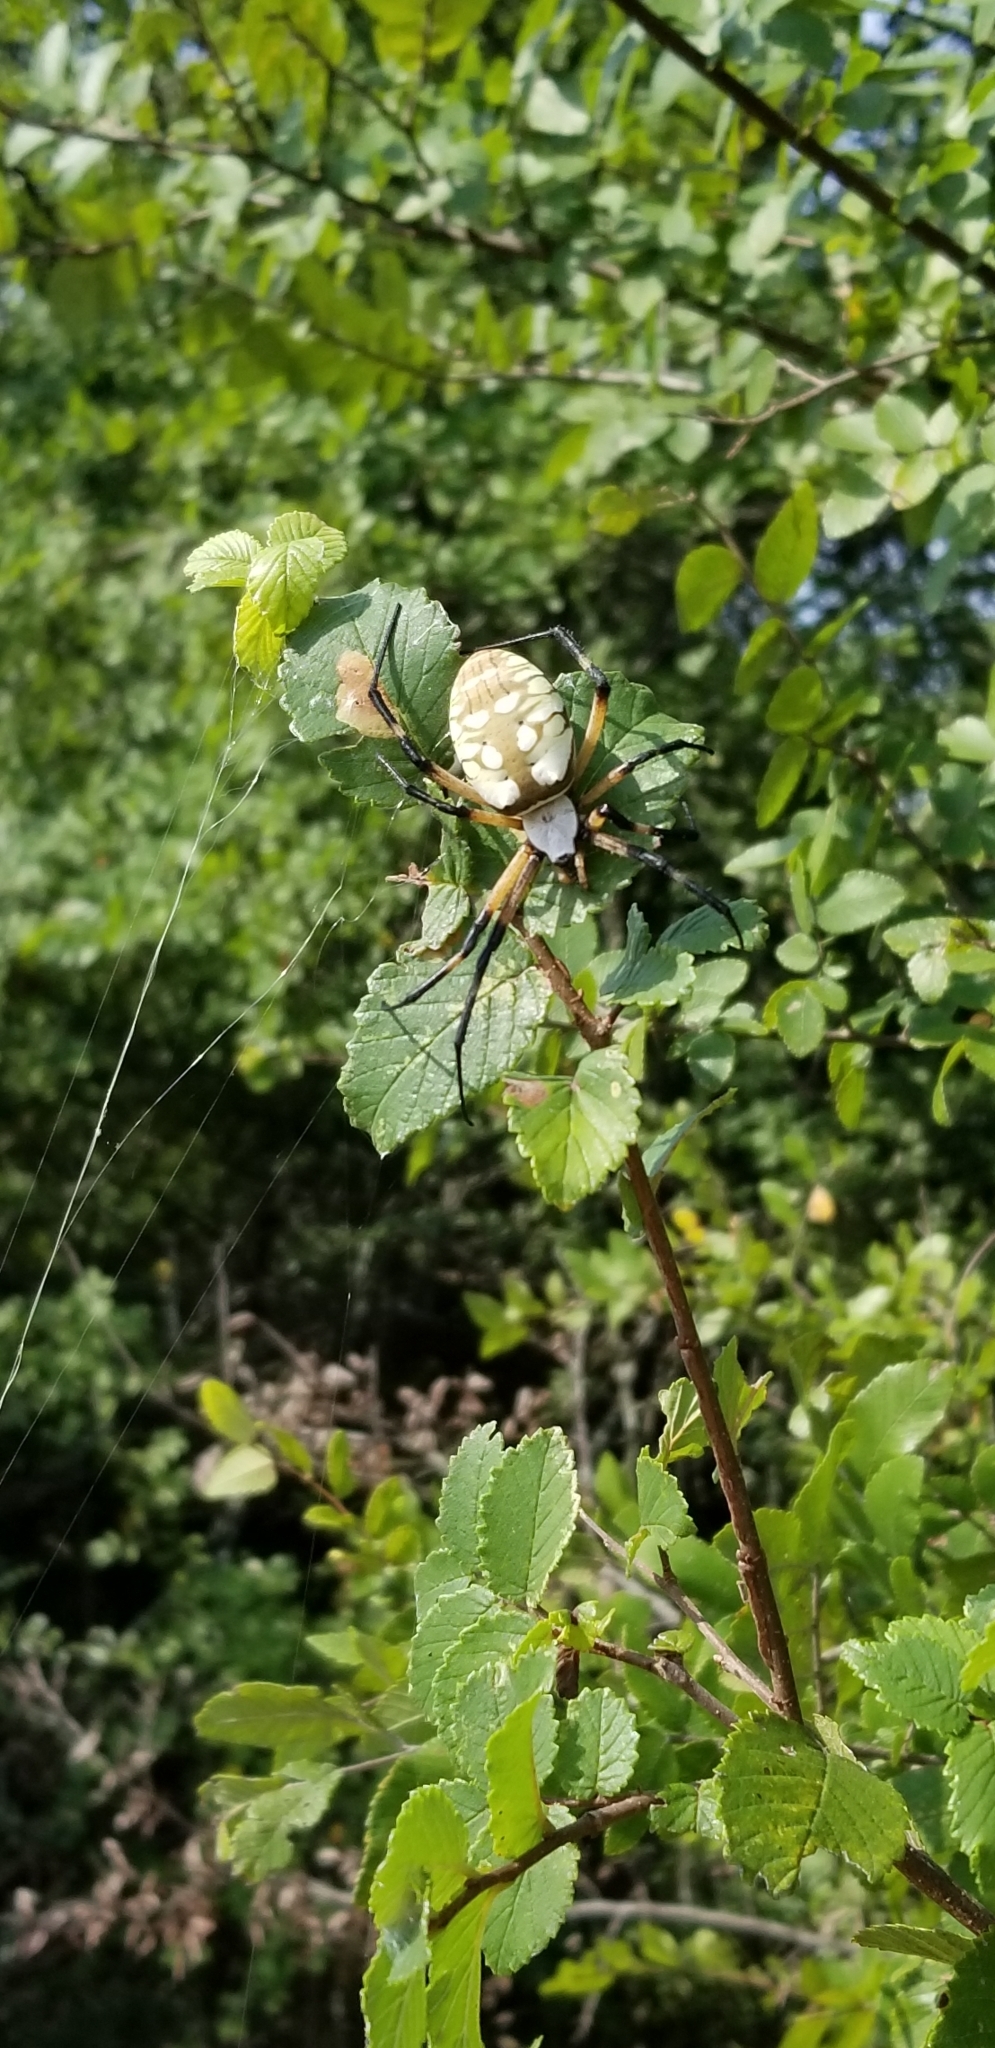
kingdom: Animalia
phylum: Arthropoda
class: Arachnida
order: Araneae
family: Araneidae
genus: Argiope
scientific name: Argiope aurantia
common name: Orb weavers
